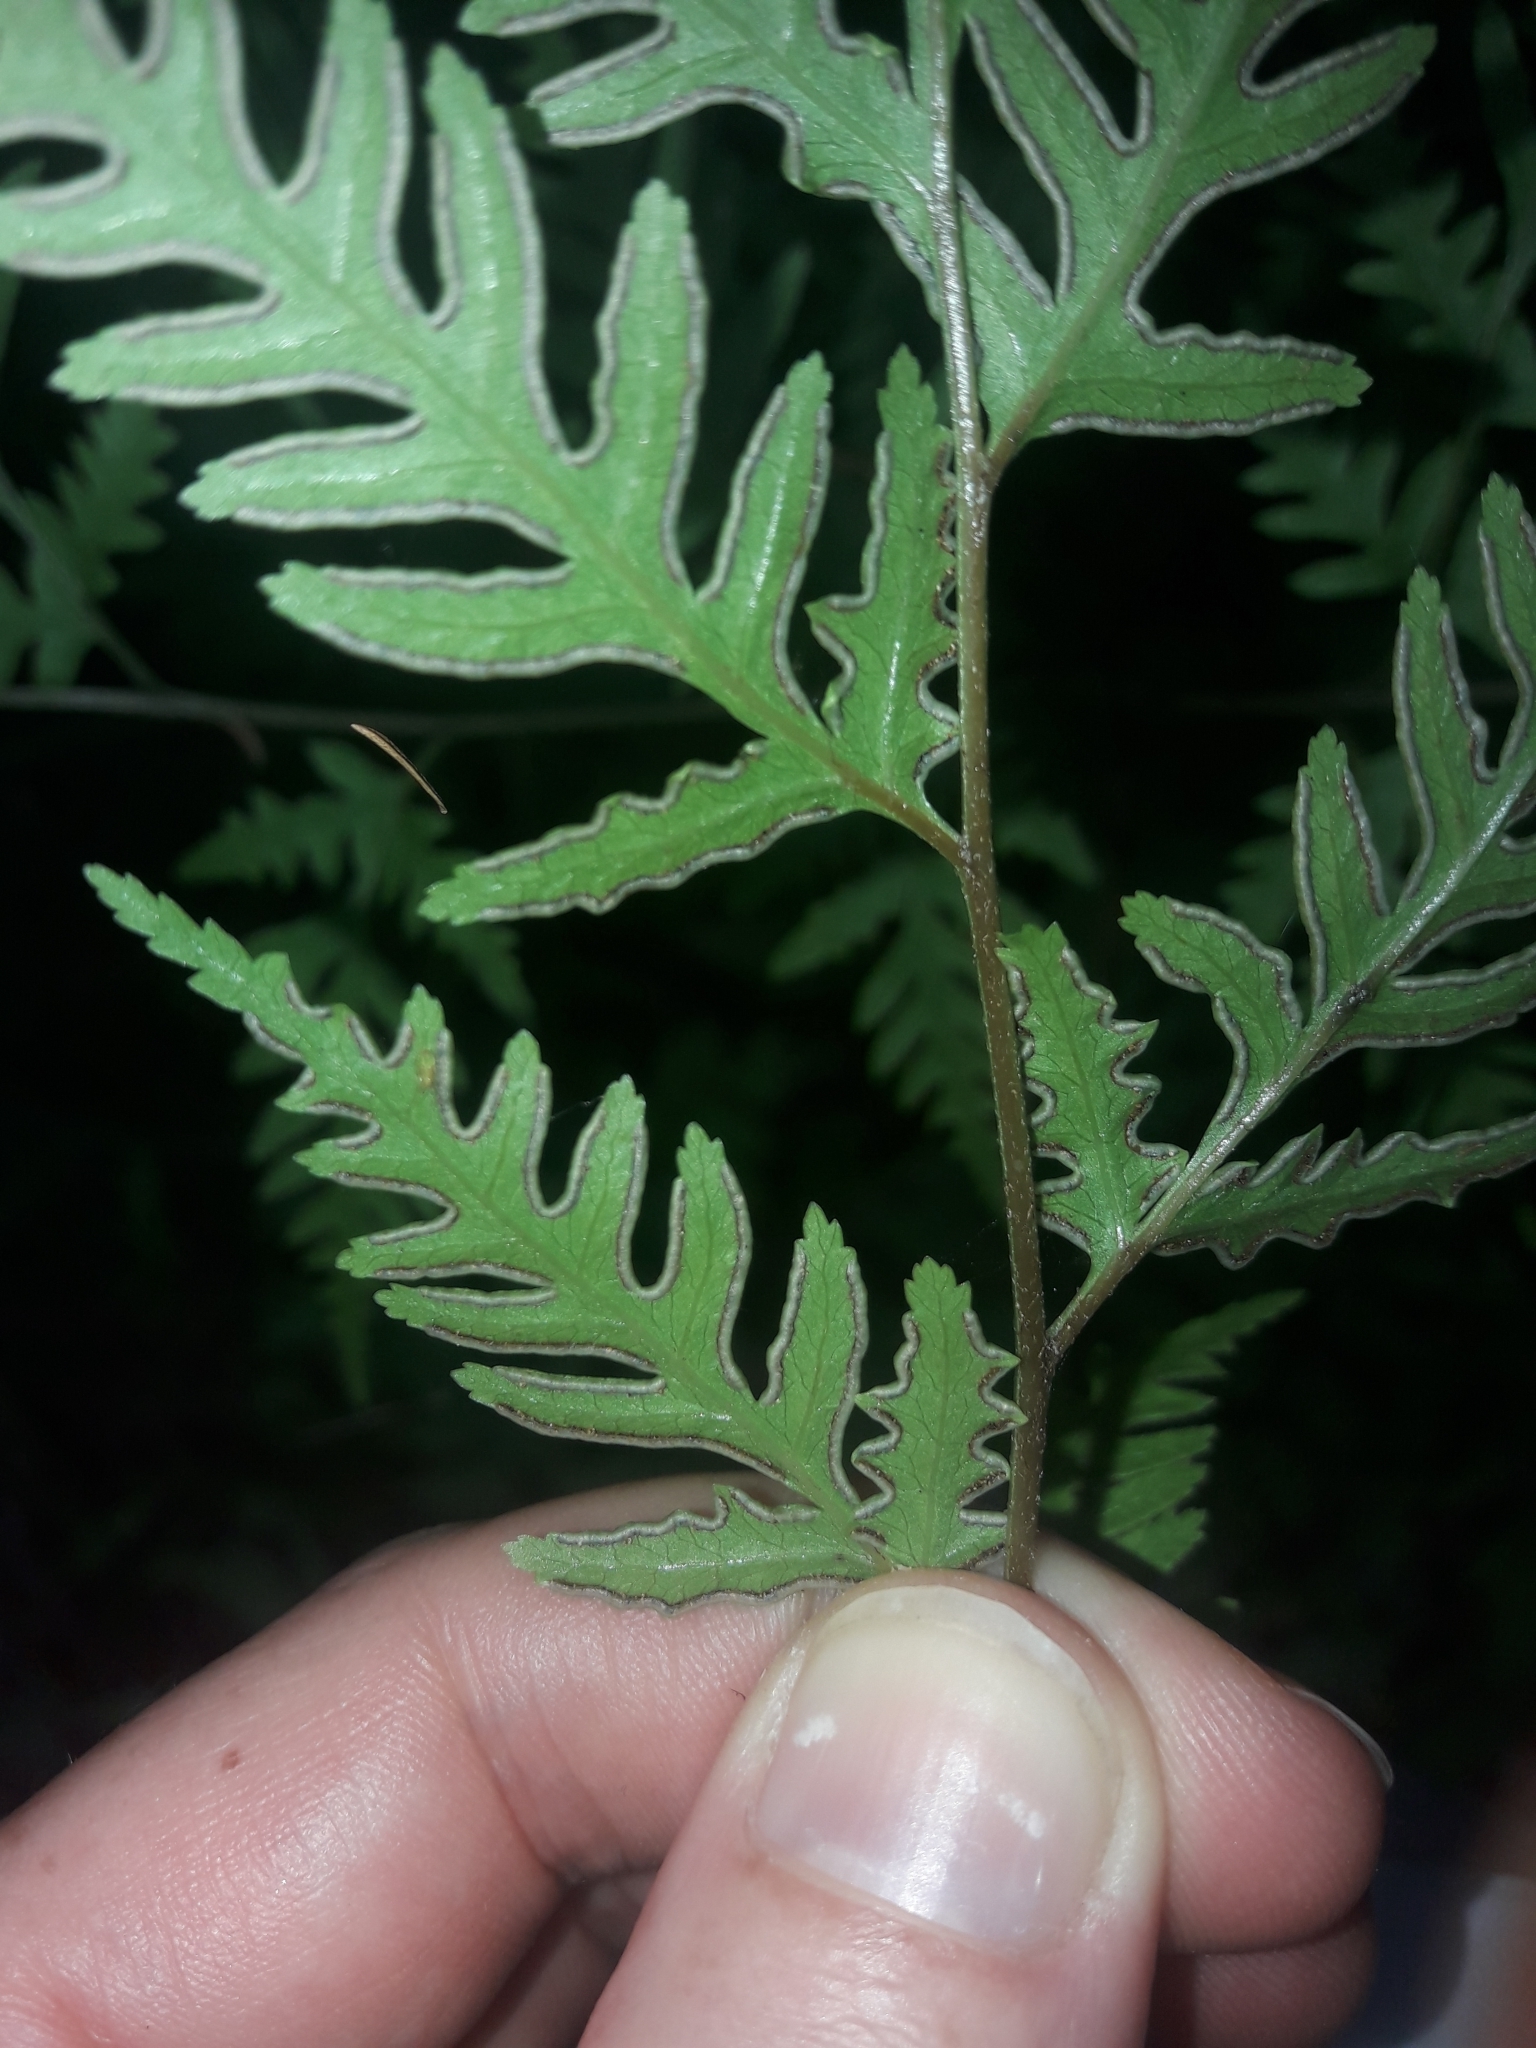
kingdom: Plantae
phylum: Tracheophyta
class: Polypodiopsida
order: Polypodiales
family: Pteridaceae
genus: Pteris
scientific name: Pteris macilenta
